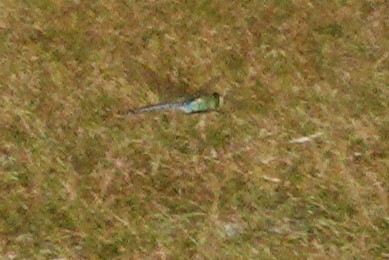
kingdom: Animalia
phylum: Arthropoda
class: Insecta
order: Odonata
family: Aeshnidae
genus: Anax
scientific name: Anax junius
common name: Common green darner
